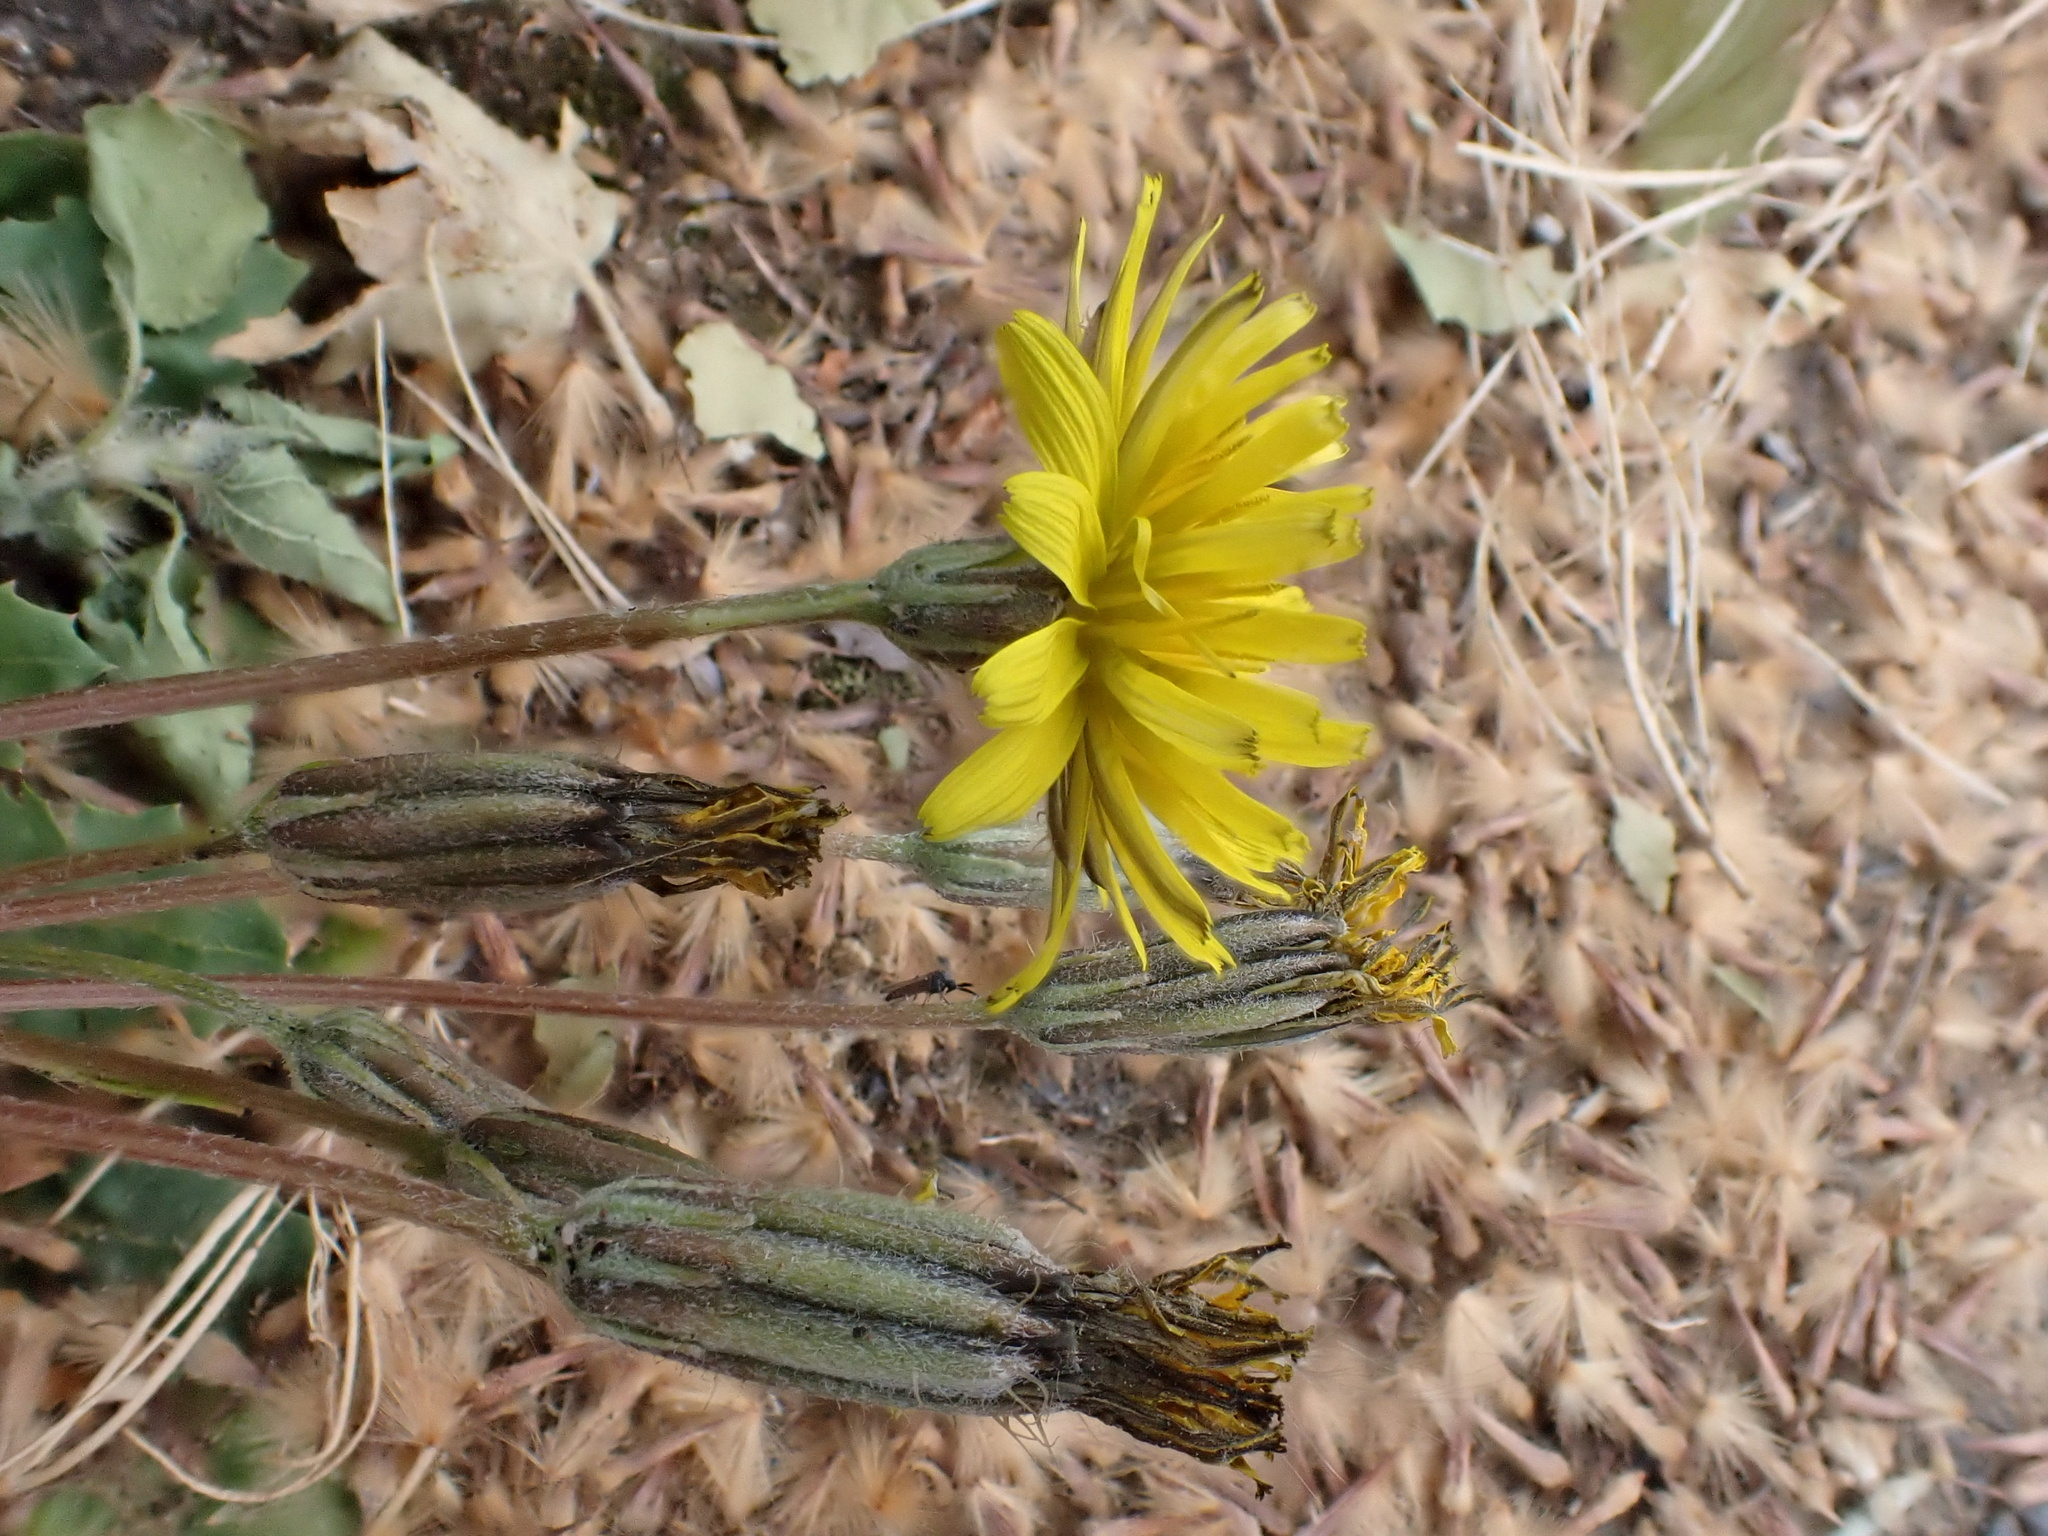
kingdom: Plantae
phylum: Tracheophyta
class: Magnoliopsida
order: Asterales
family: Asteraceae
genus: Crepis
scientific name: Crepis bursifolia
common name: Italian hawksbeard
